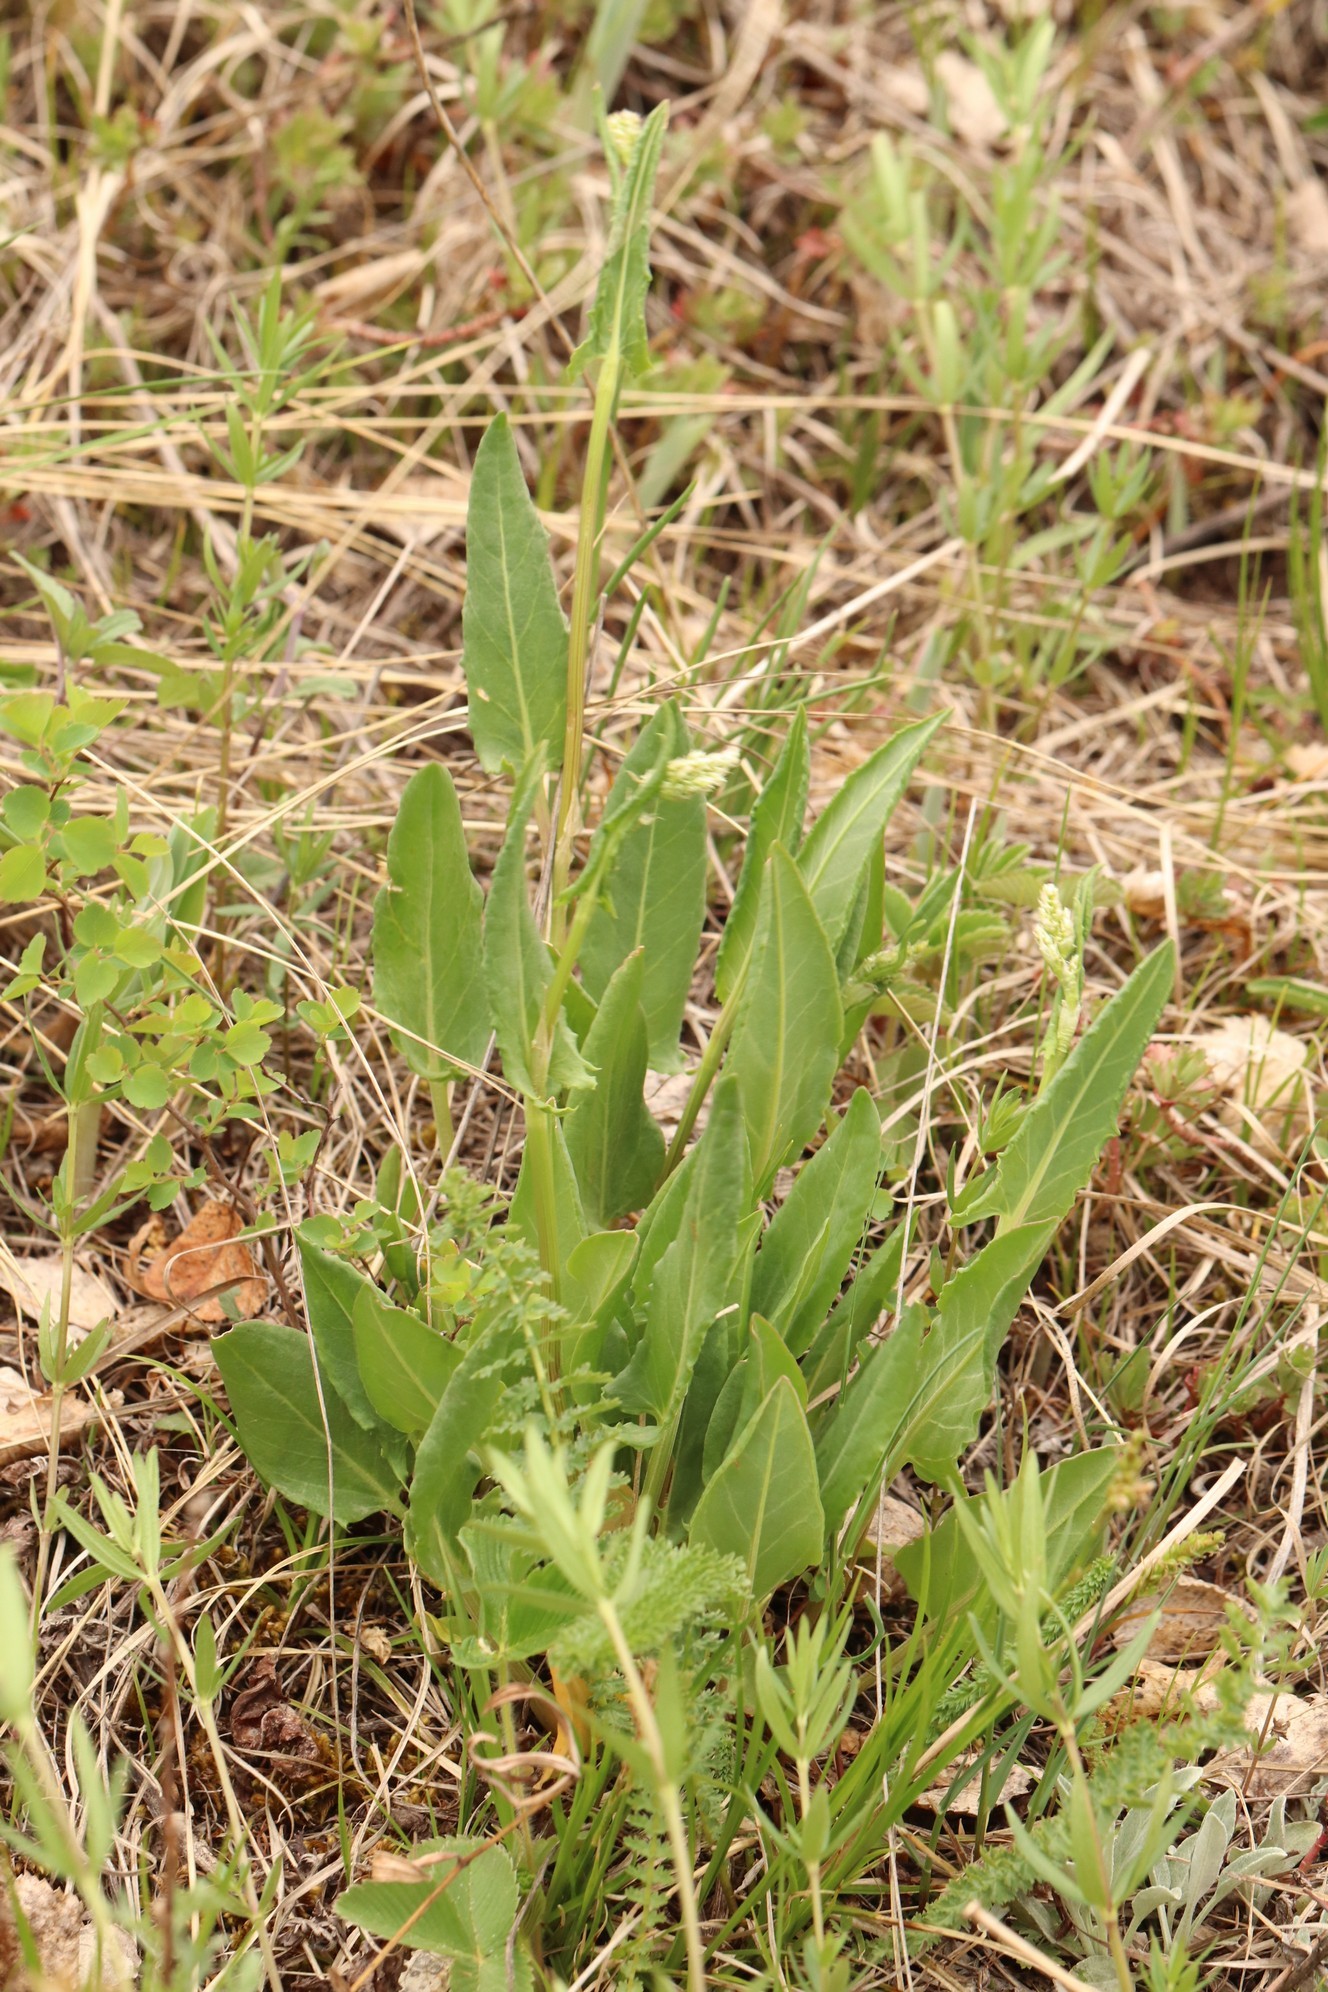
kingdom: Plantae
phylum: Tracheophyta
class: Magnoliopsida
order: Caryophyllales
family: Polygonaceae
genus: Rumex
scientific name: Rumex acetosa
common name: Garden sorrel
